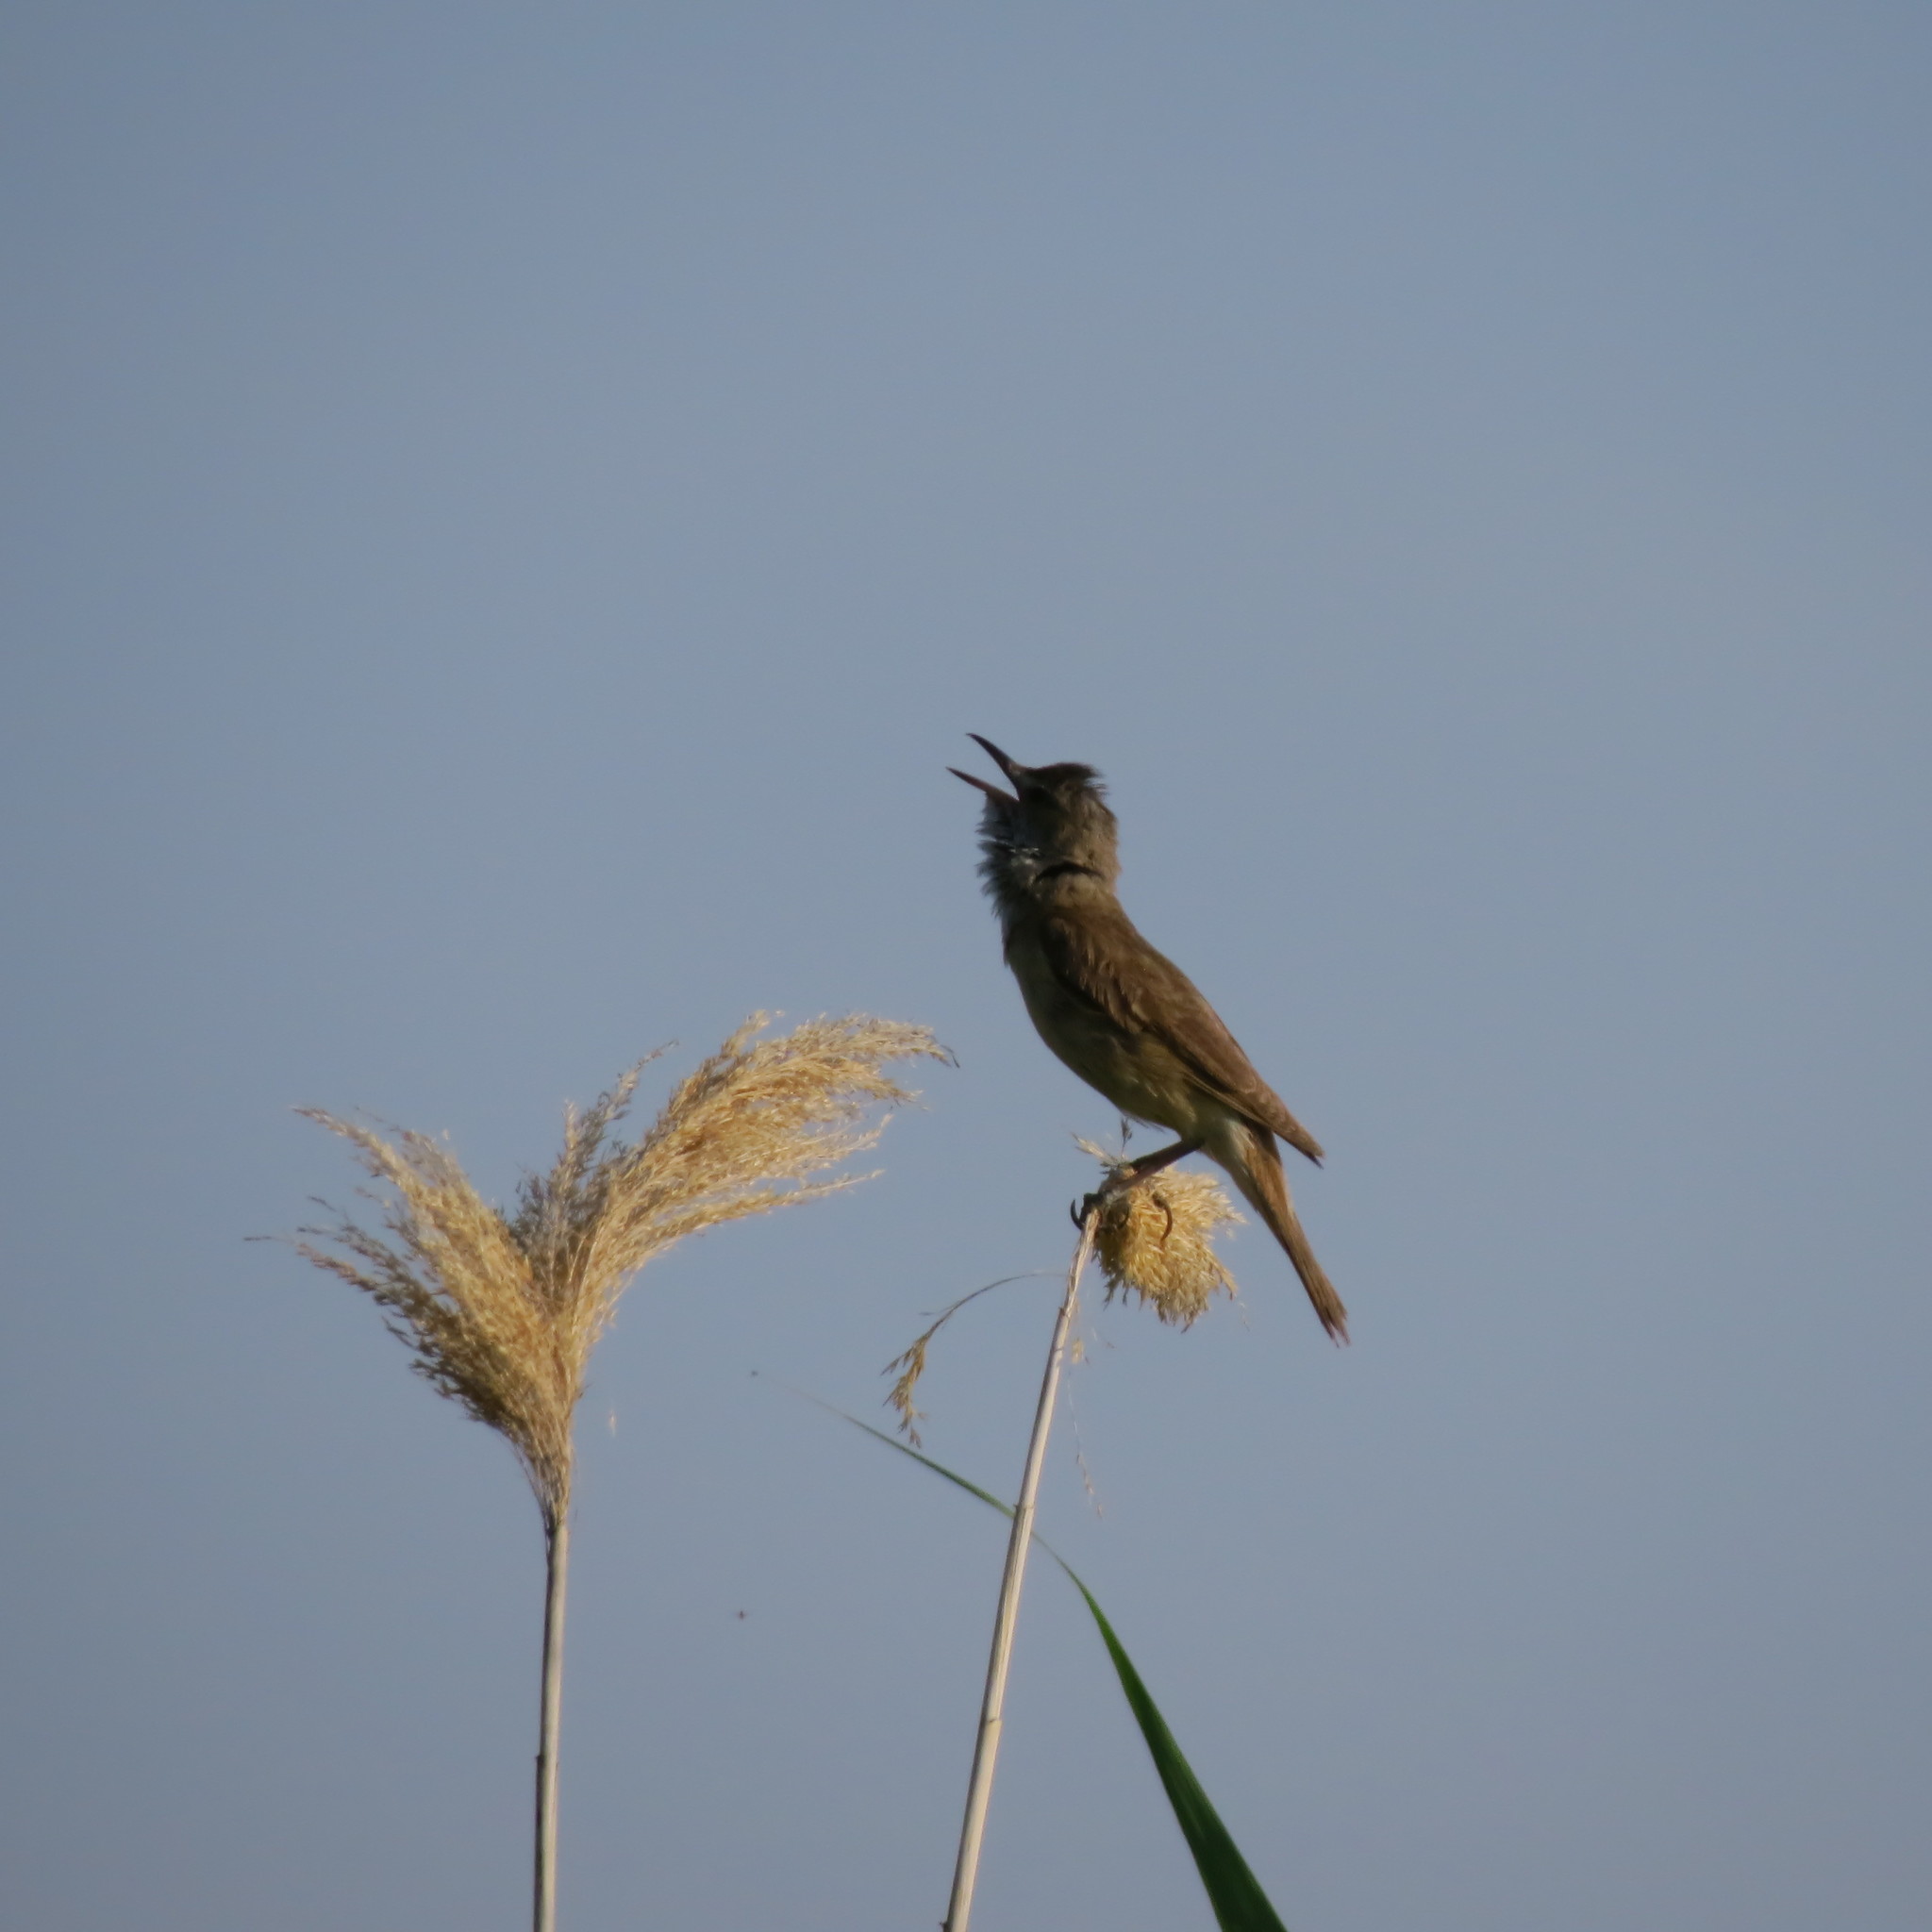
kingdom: Animalia
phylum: Chordata
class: Aves
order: Passeriformes
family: Acrocephalidae
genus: Acrocephalus
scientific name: Acrocephalus arundinaceus
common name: Great reed warbler
